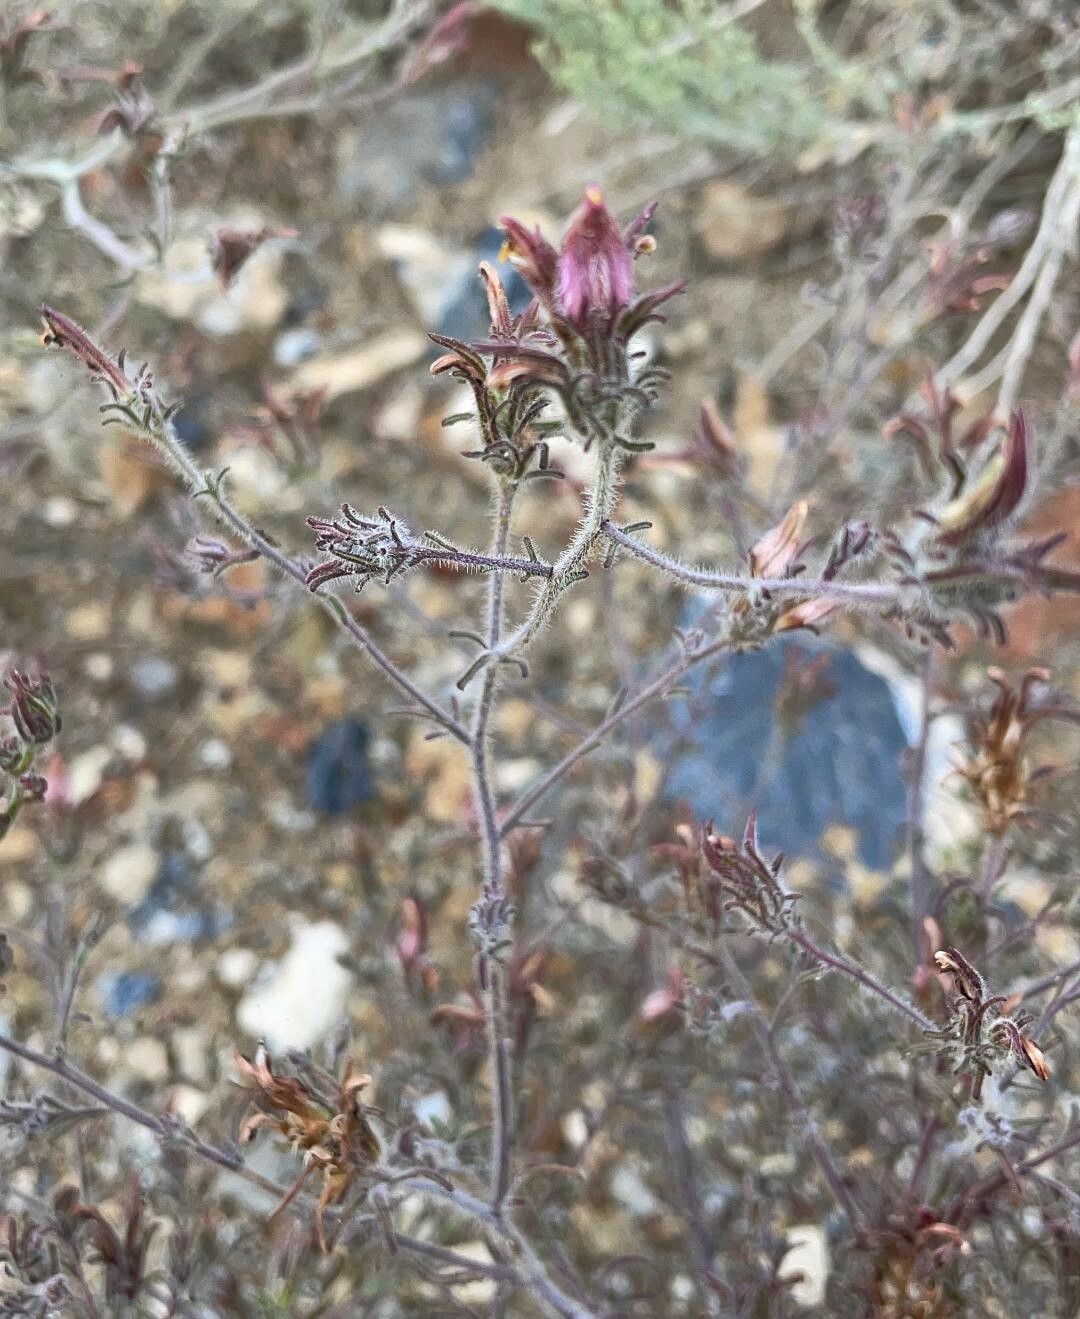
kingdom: Plantae
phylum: Tracheophyta
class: Magnoliopsida
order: Lamiales
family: Orobanchaceae
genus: Cordylanthus
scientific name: Cordylanthus kingii
